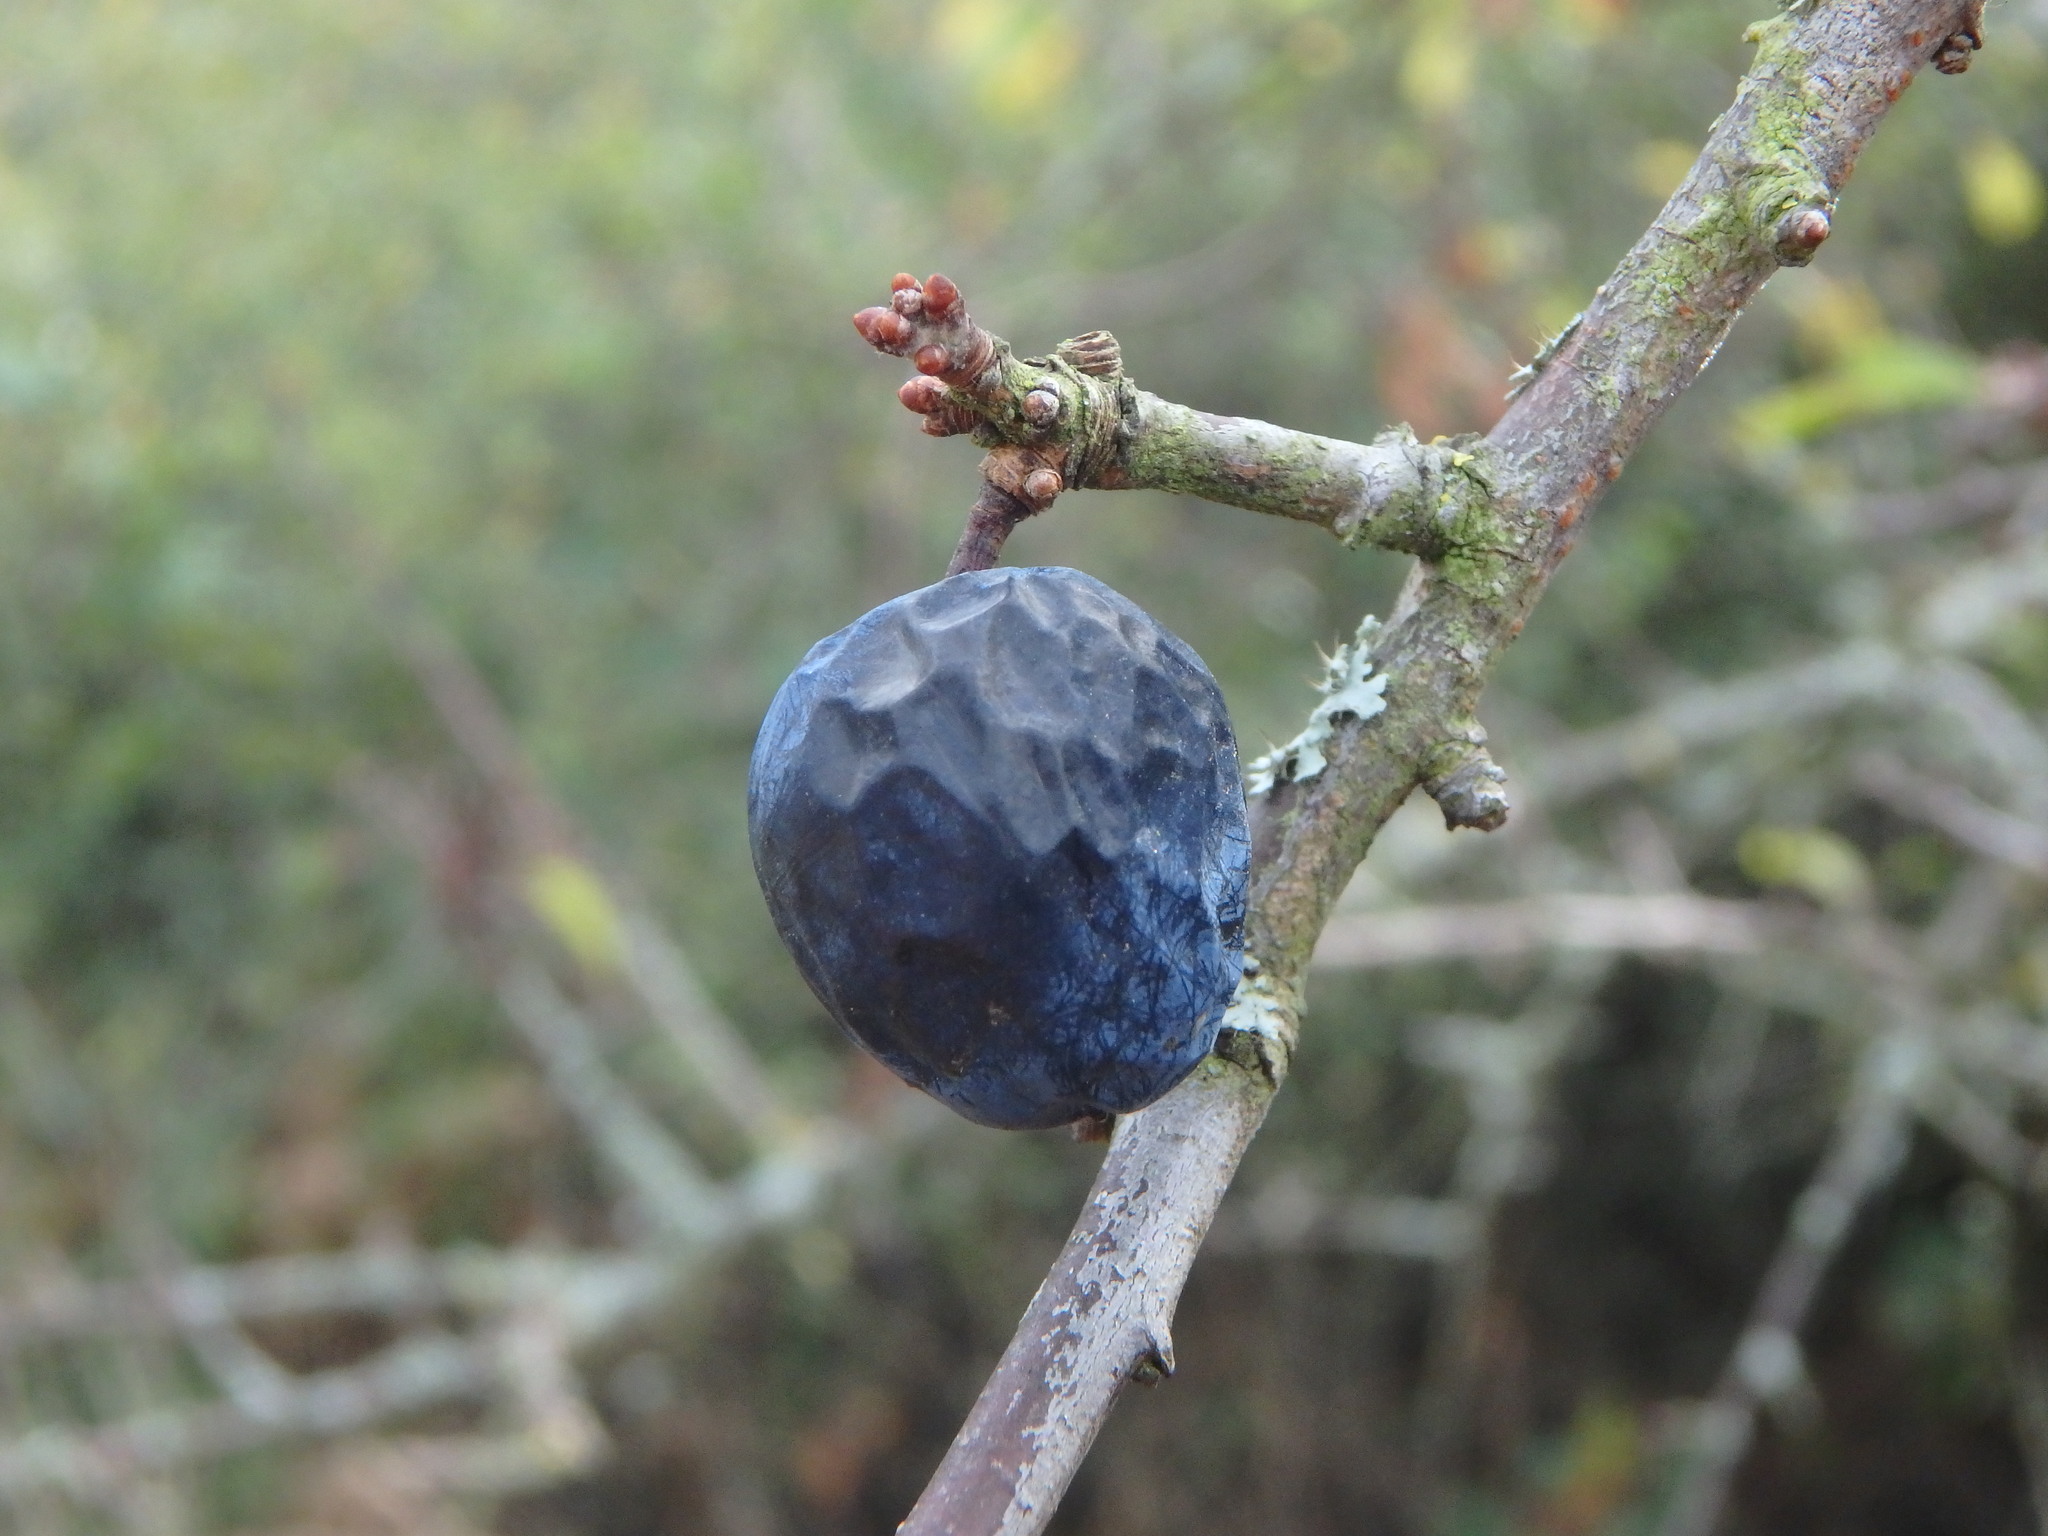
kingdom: Plantae
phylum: Tracheophyta
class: Magnoliopsida
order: Rosales
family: Rosaceae
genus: Prunus
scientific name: Prunus spinosa
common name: Blackthorn
